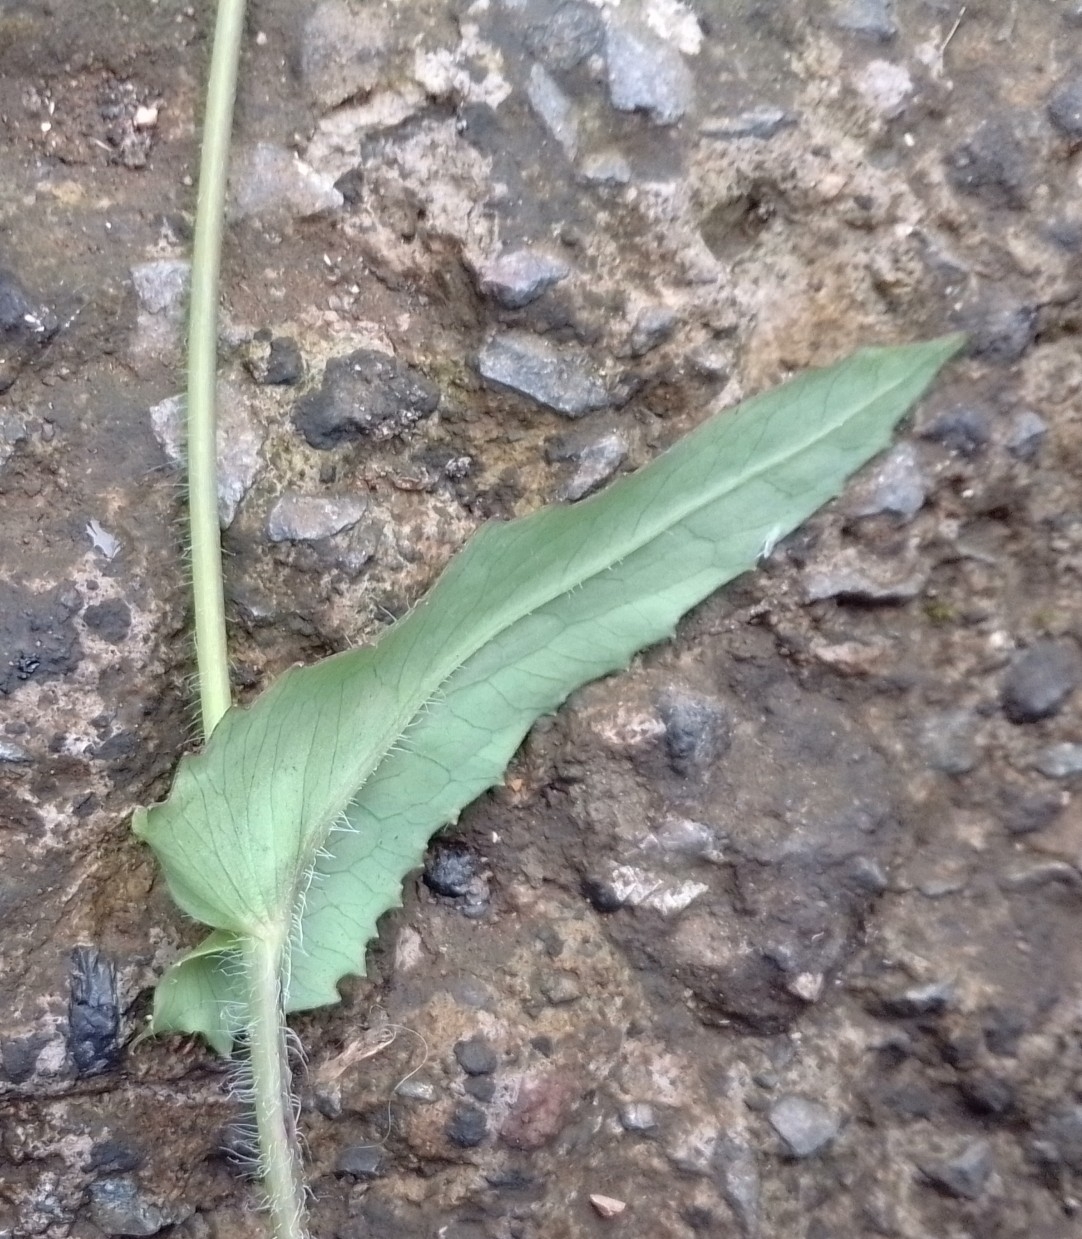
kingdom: Plantae
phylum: Tracheophyta
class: Magnoliopsida
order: Asterales
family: Asteraceae
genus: Emilia
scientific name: Emilia fosbergii
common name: Florida tasselflower
